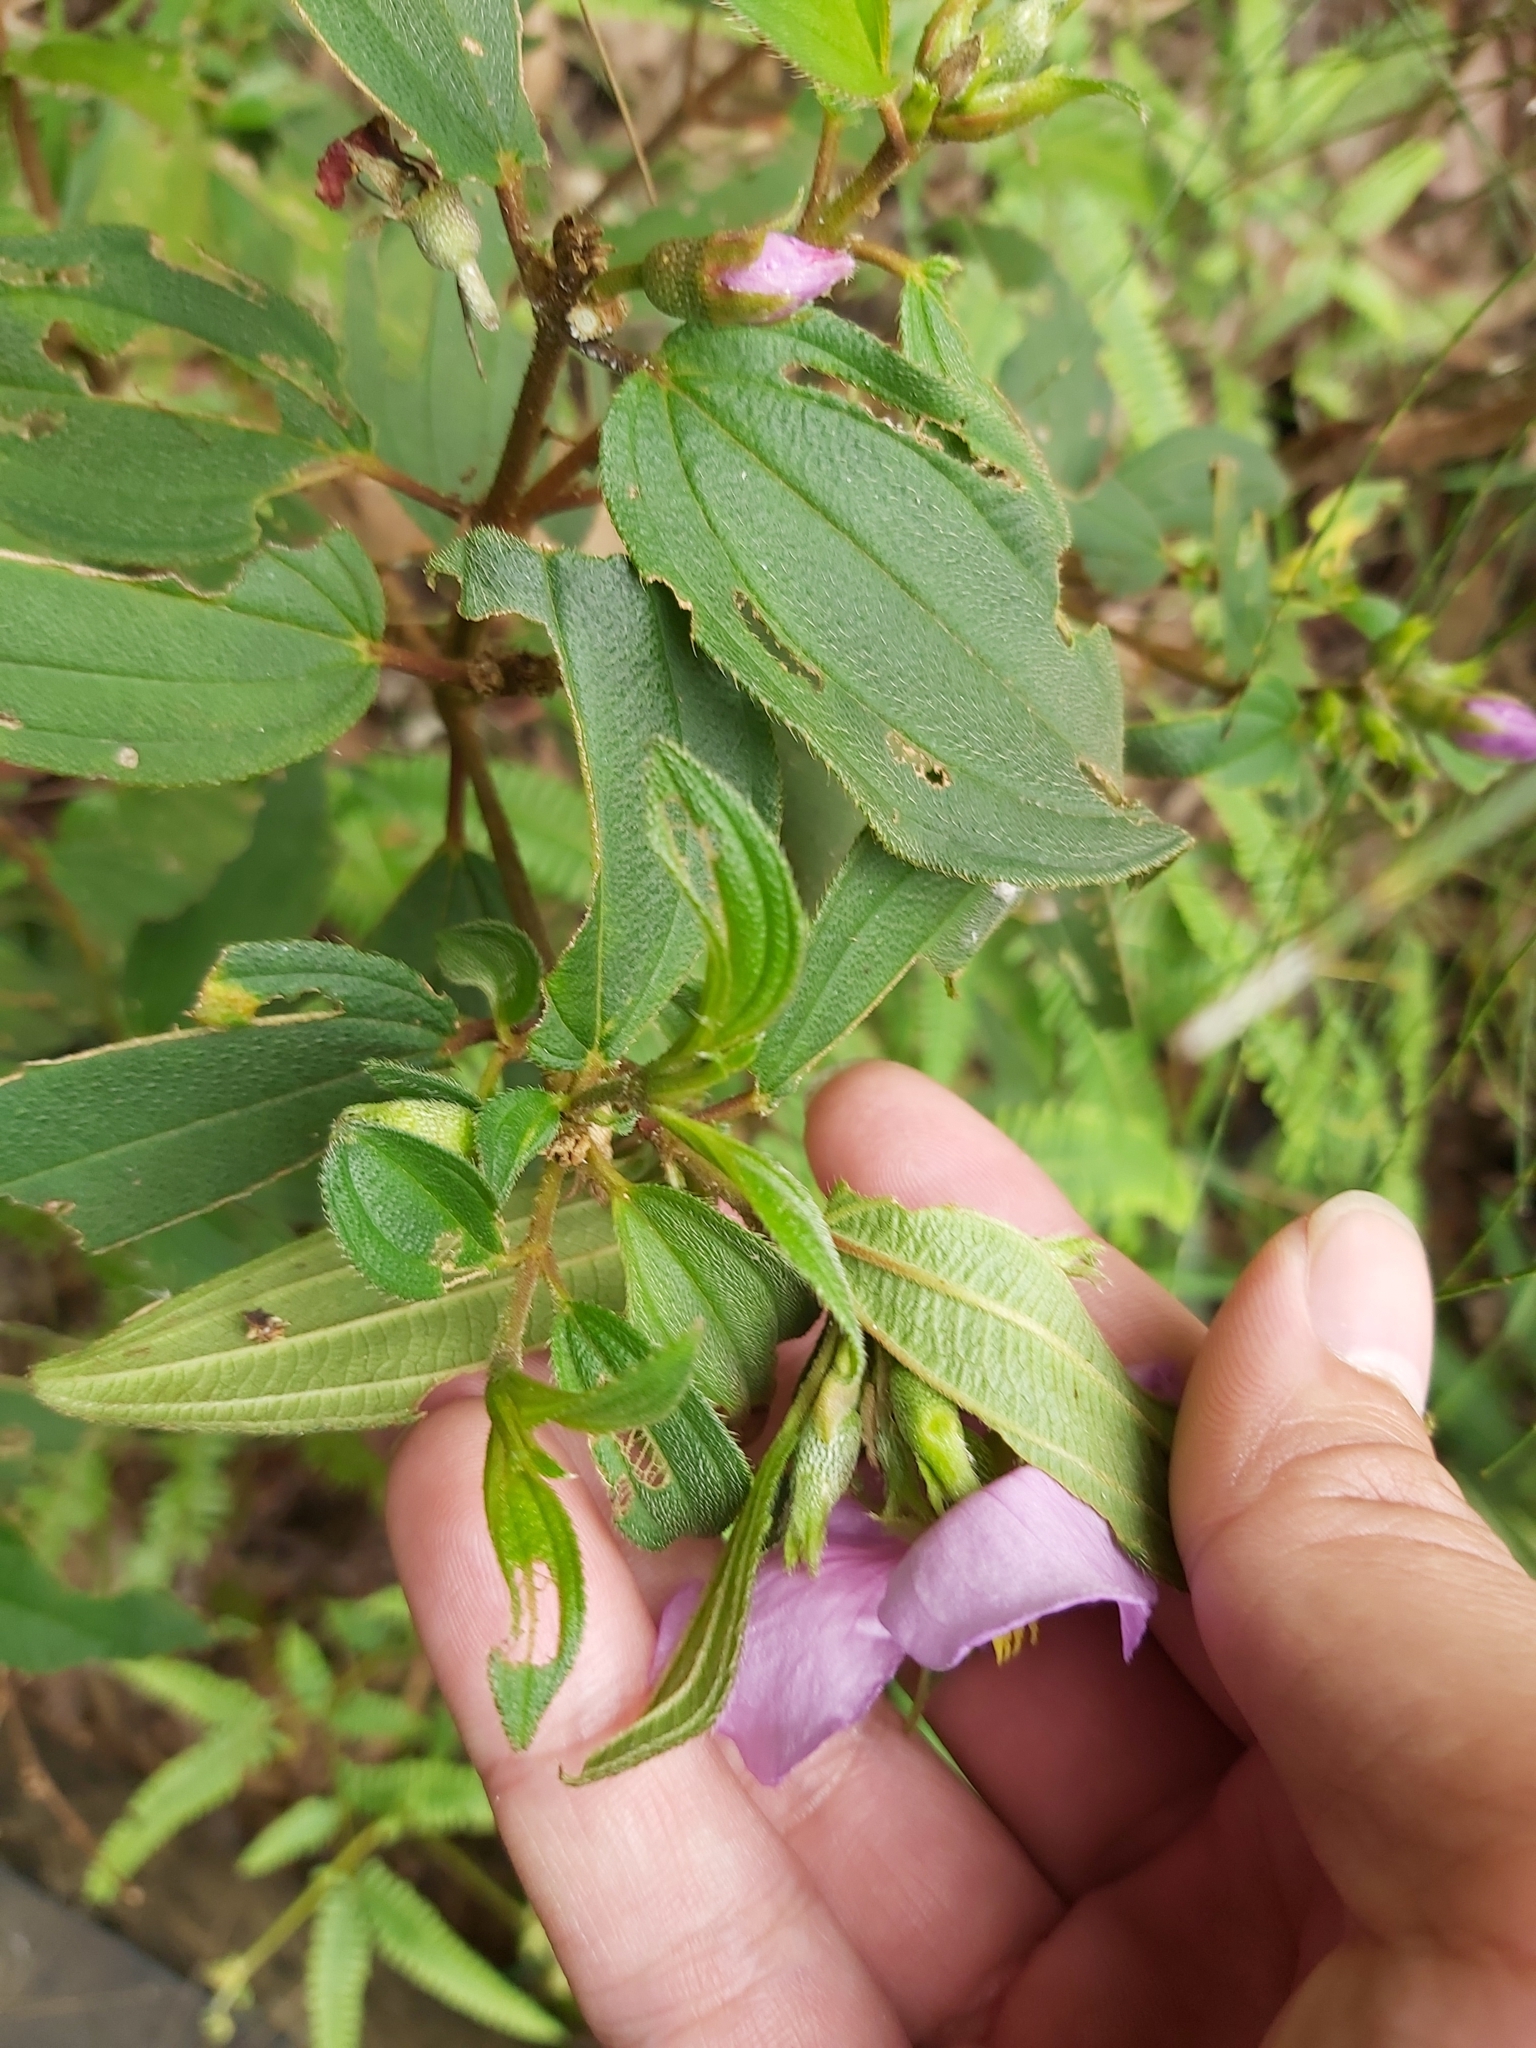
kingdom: Plantae
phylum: Tracheophyta
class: Magnoliopsida
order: Myrtales
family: Melastomataceae
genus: Melastoma
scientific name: Melastoma malabathricum
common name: Indian-rhododendron
